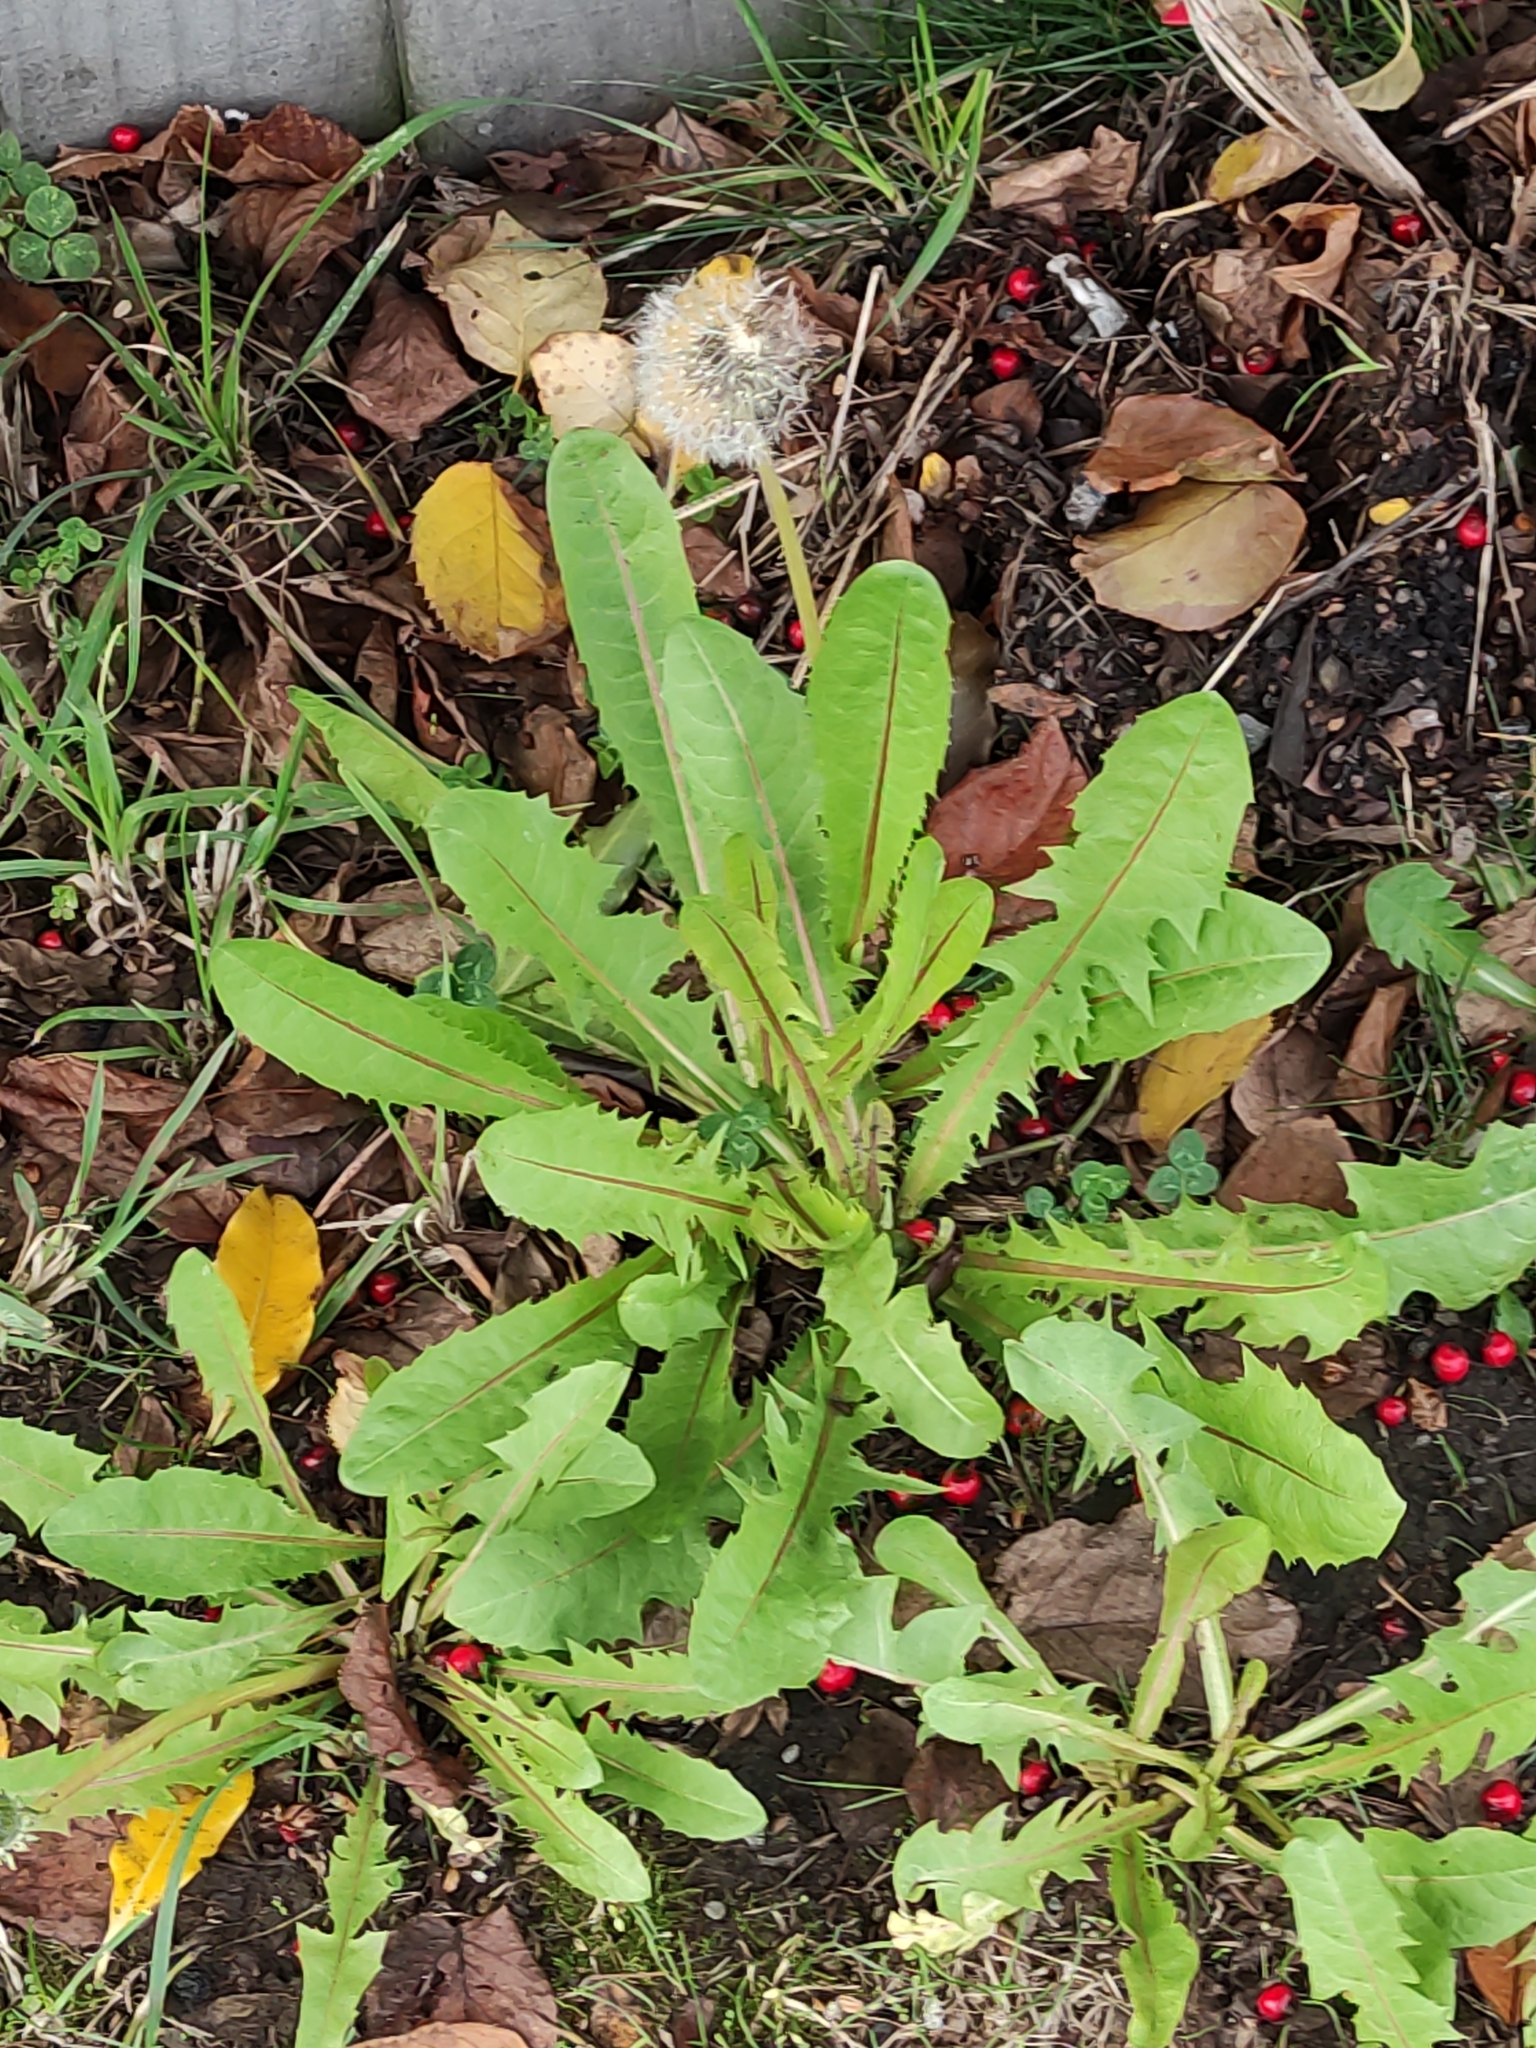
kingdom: Plantae
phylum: Tracheophyta
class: Magnoliopsida
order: Asterales
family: Asteraceae
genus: Taraxacum
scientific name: Taraxacum officinale
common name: Common dandelion
